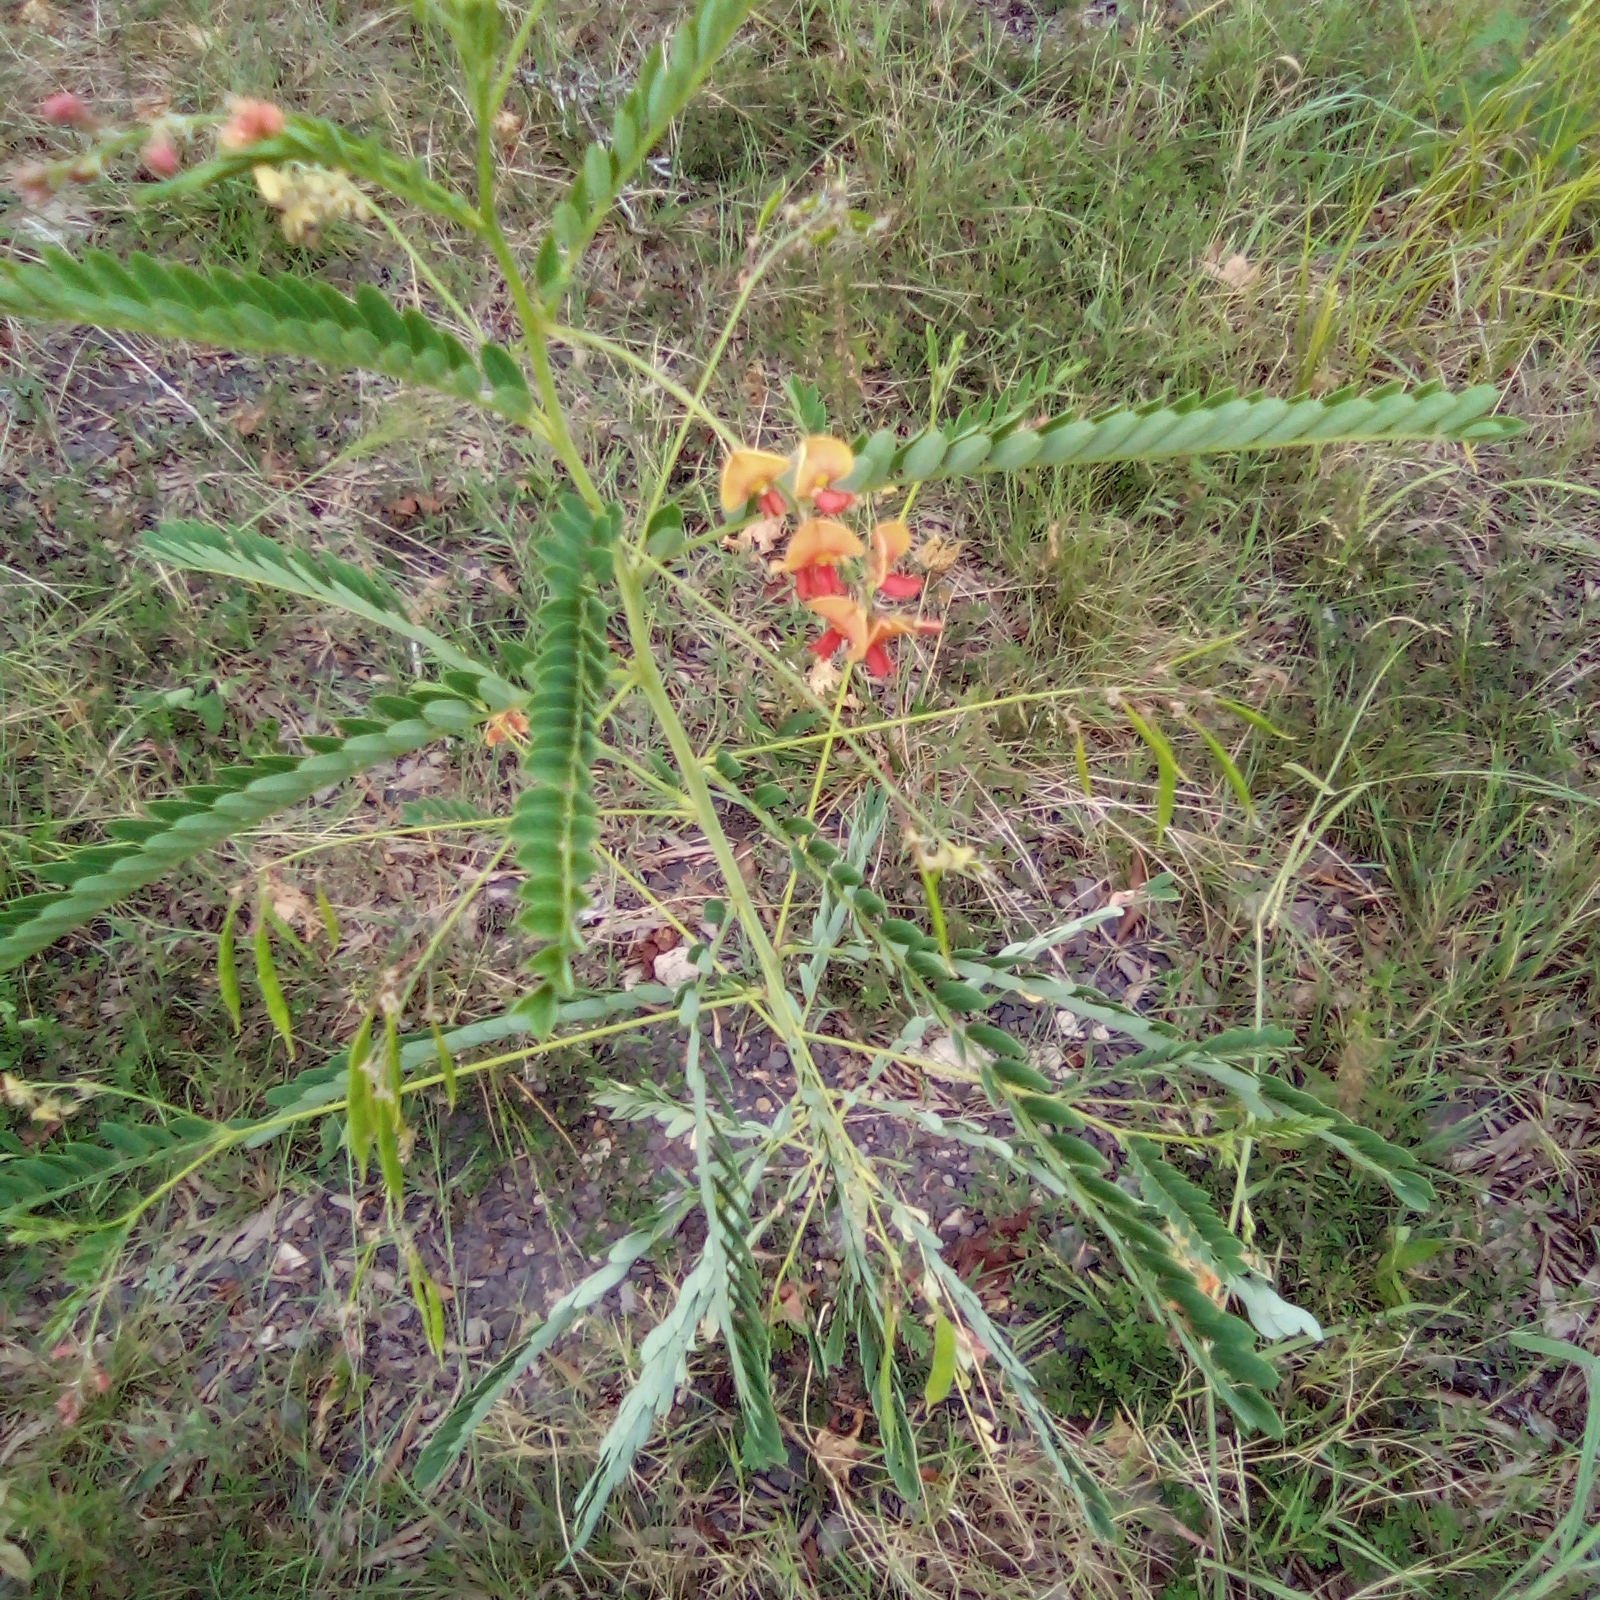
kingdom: Plantae
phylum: Tracheophyta
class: Magnoliopsida
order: Fabales
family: Fabaceae
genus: Sesbania
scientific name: Sesbania vesicaria
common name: Bagpod
